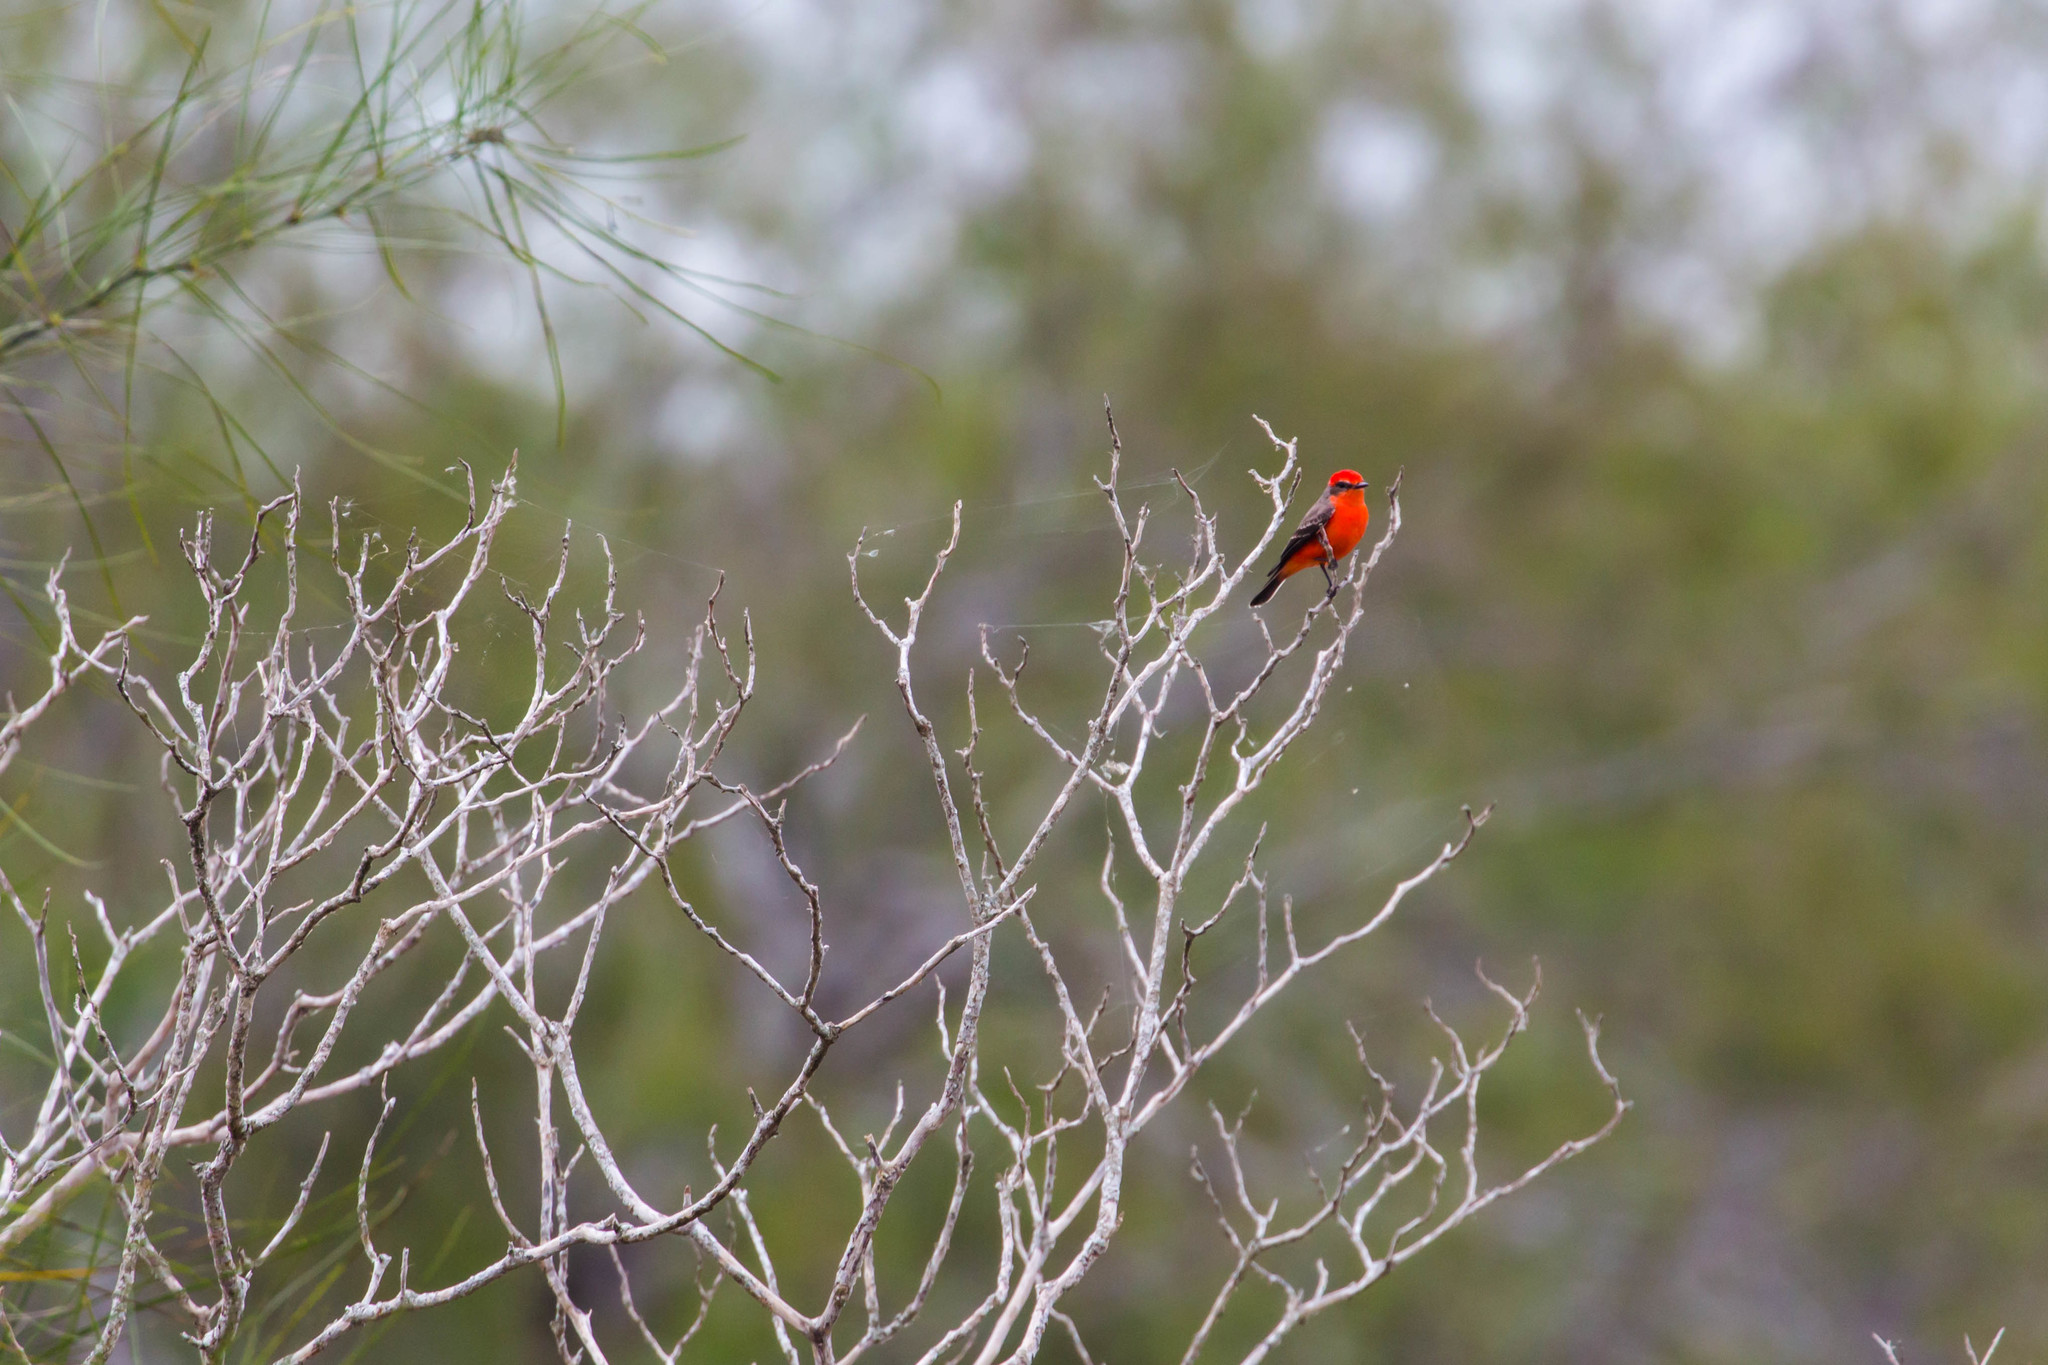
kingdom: Animalia
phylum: Chordata
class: Aves
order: Passeriformes
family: Tyrannidae
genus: Pyrocephalus
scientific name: Pyrocephalus rubinus
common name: Vermilion flycatcher
